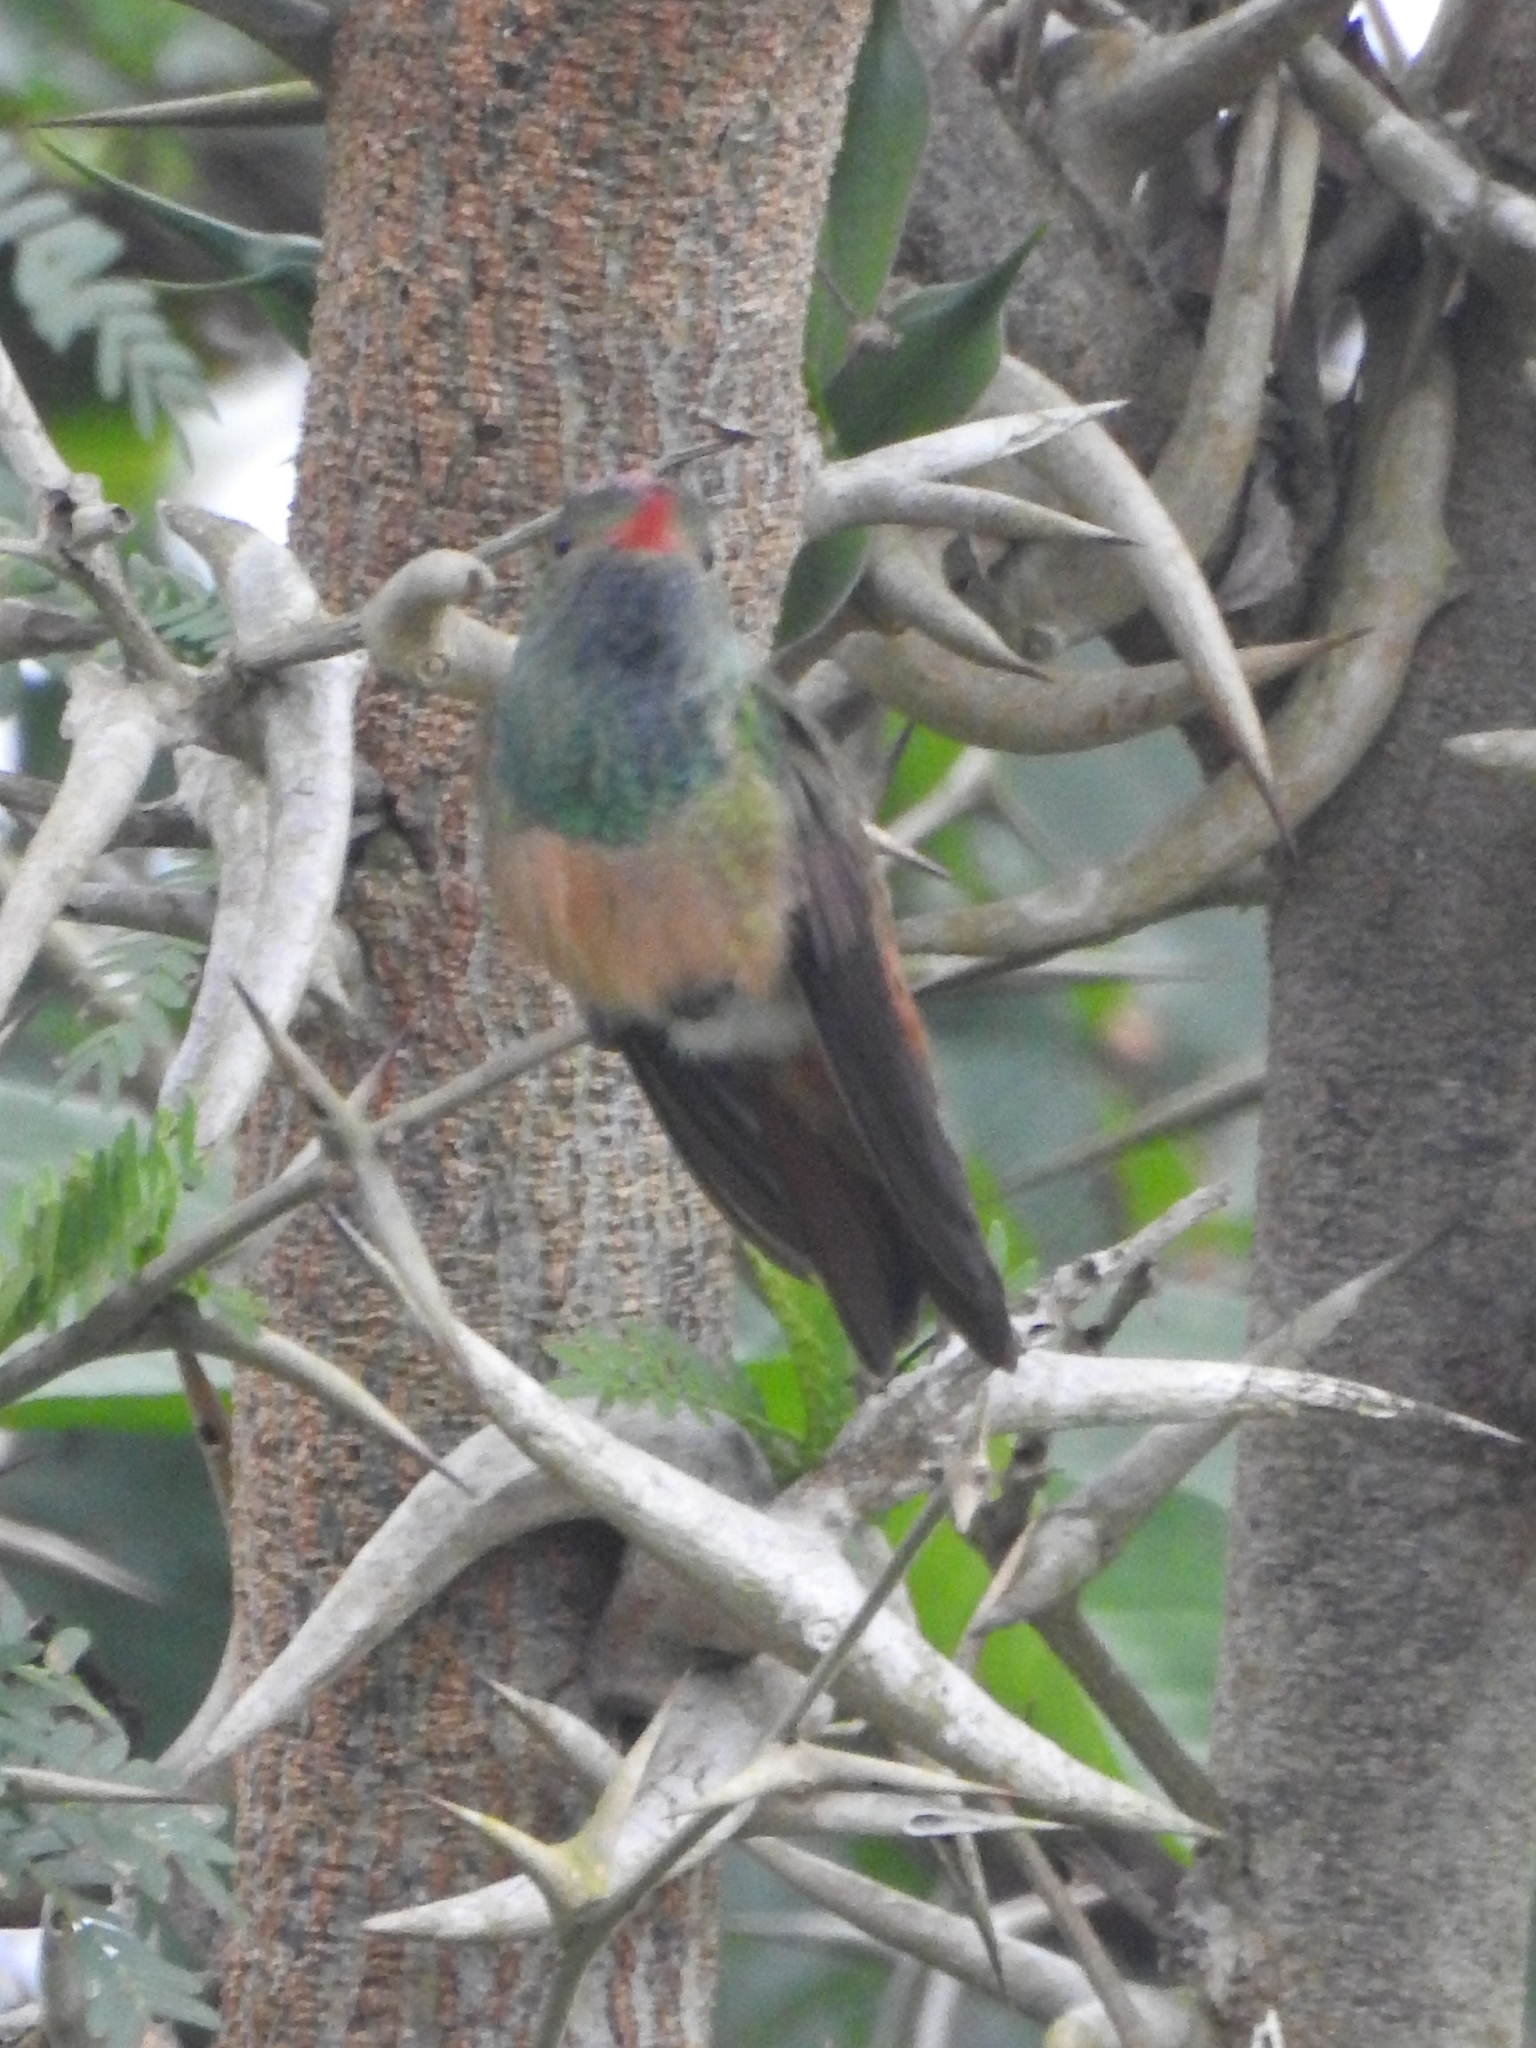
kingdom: Animalia
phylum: Chordata
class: Aves
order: Apodiformes
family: Trochilidae
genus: Amazilia
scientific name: Amazilia yucatanensis
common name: Buff-bellied hummingbird
